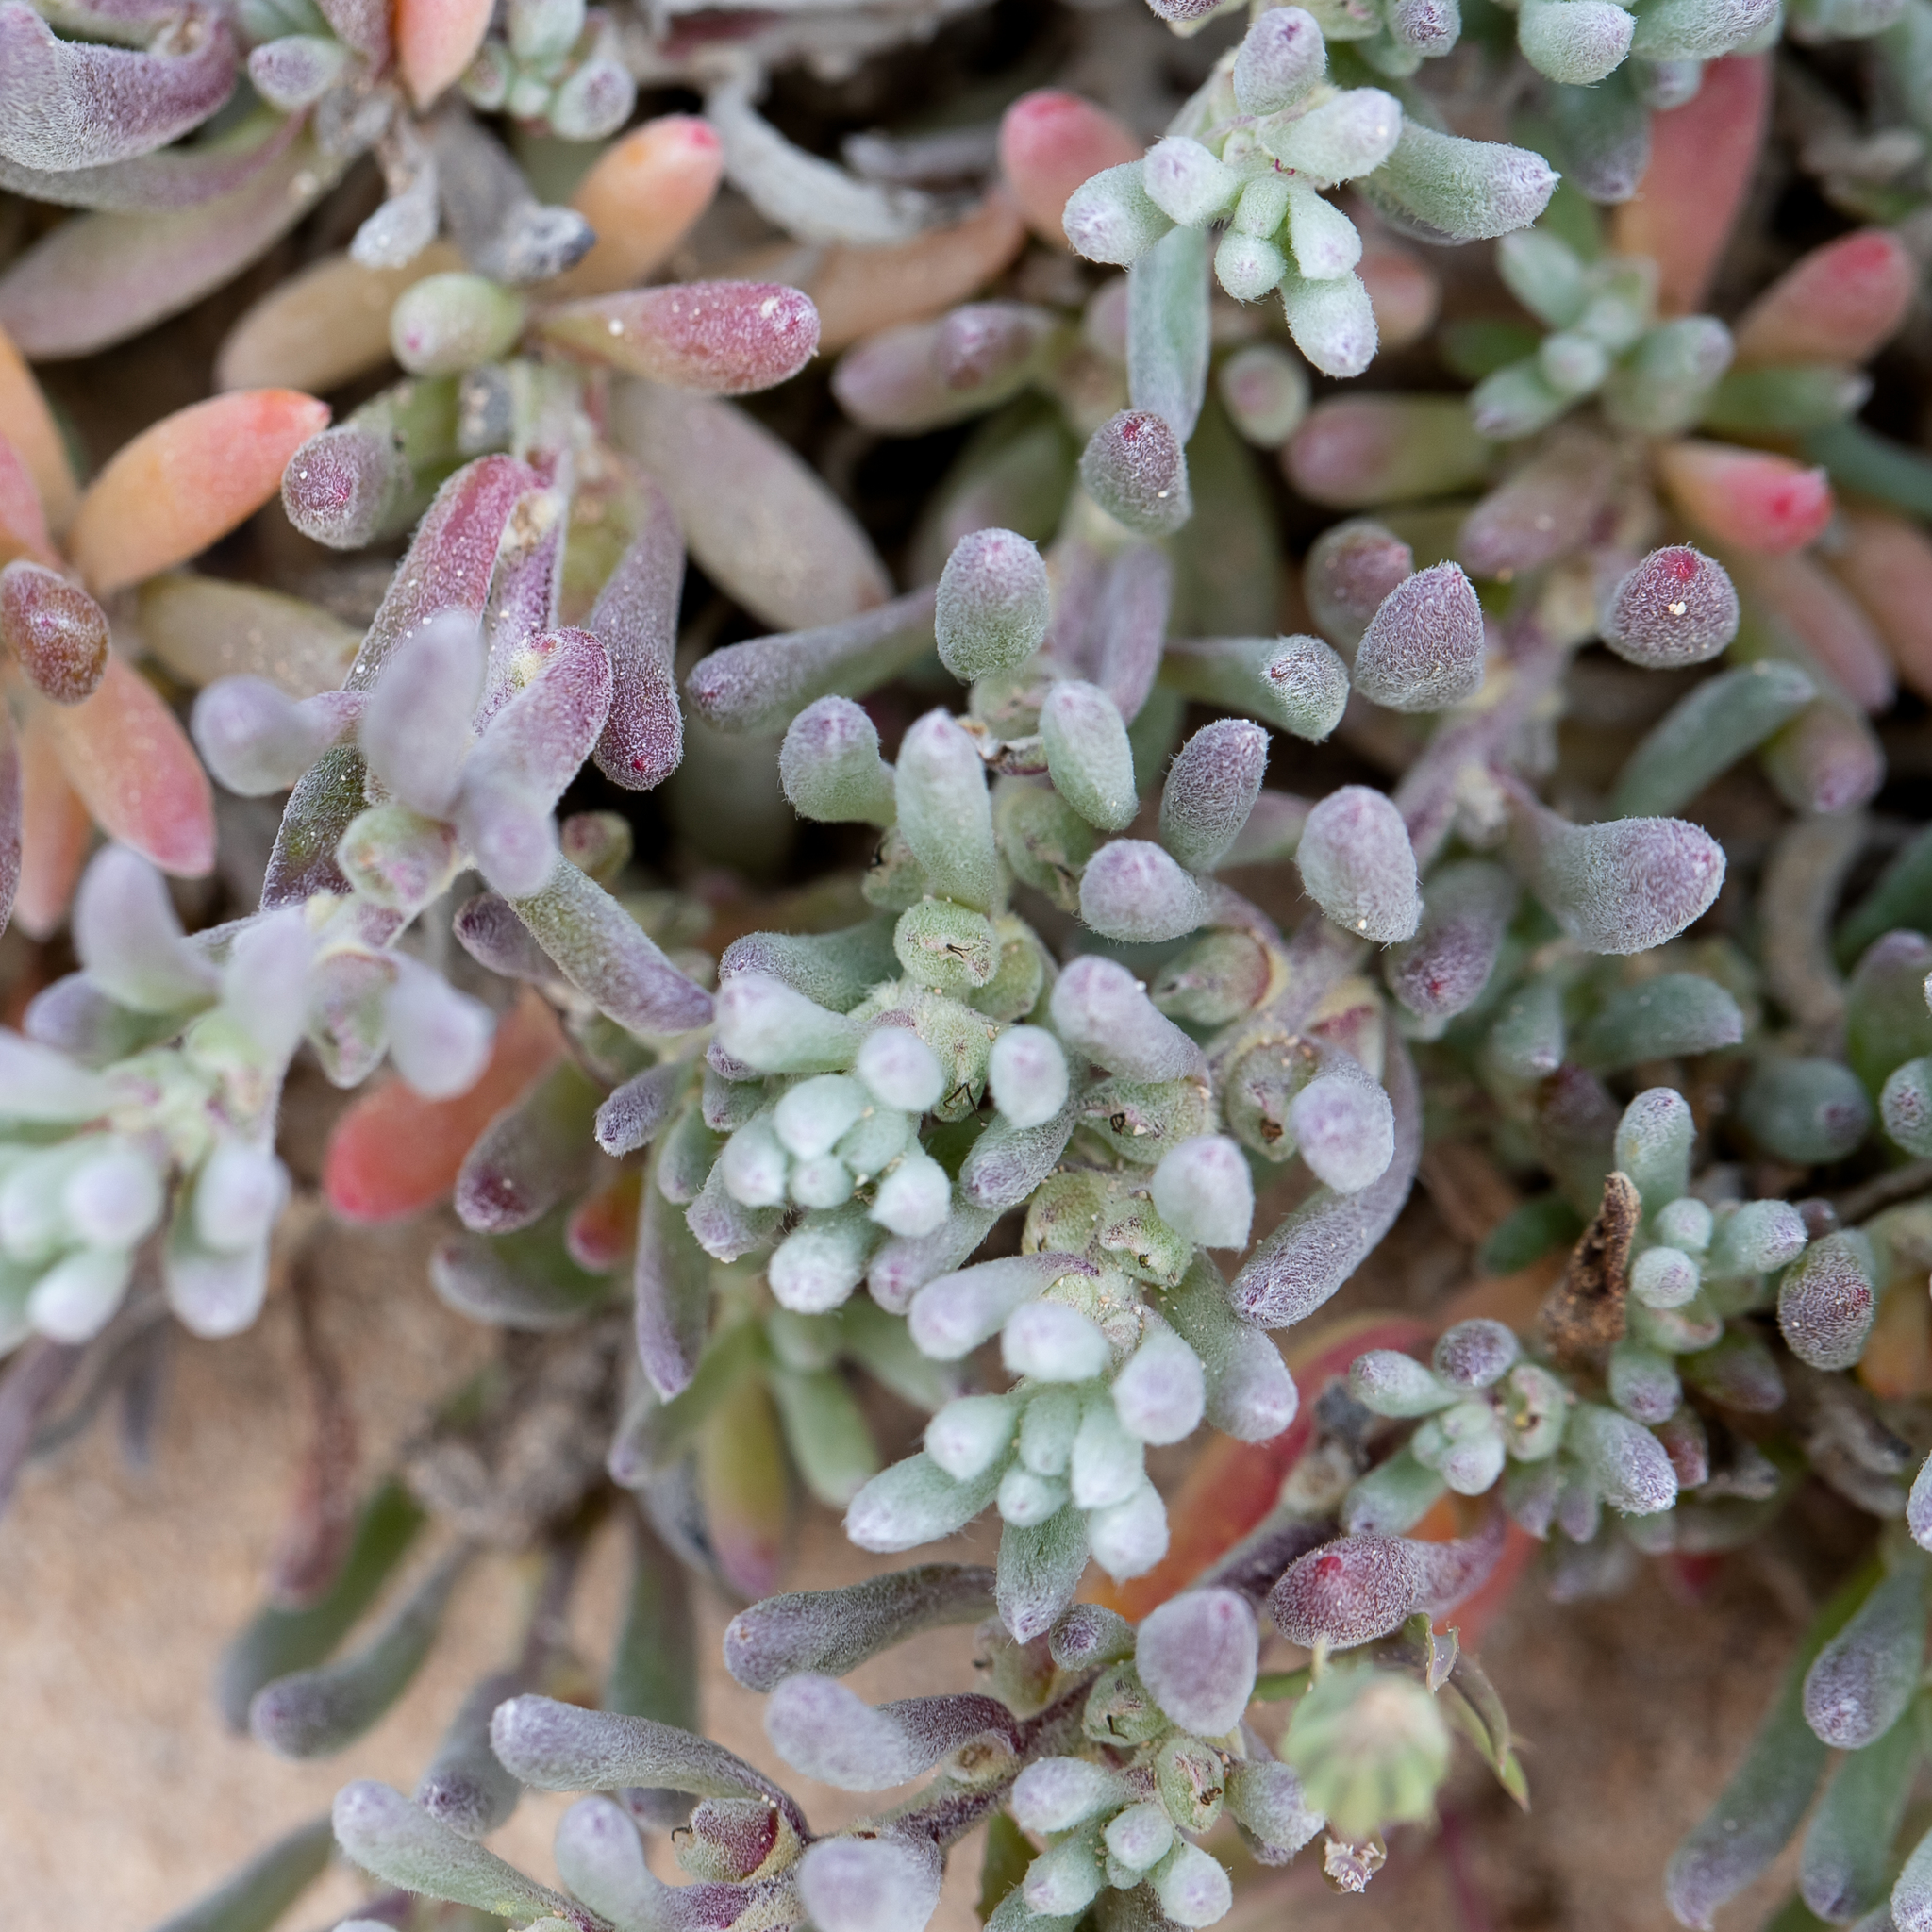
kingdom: Plantae
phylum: Tracheophyta
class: Magnoliopsida
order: Caryophyllales
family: Amaranthaceae
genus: Sclerolaena
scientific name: Sclerolaena uniflora
